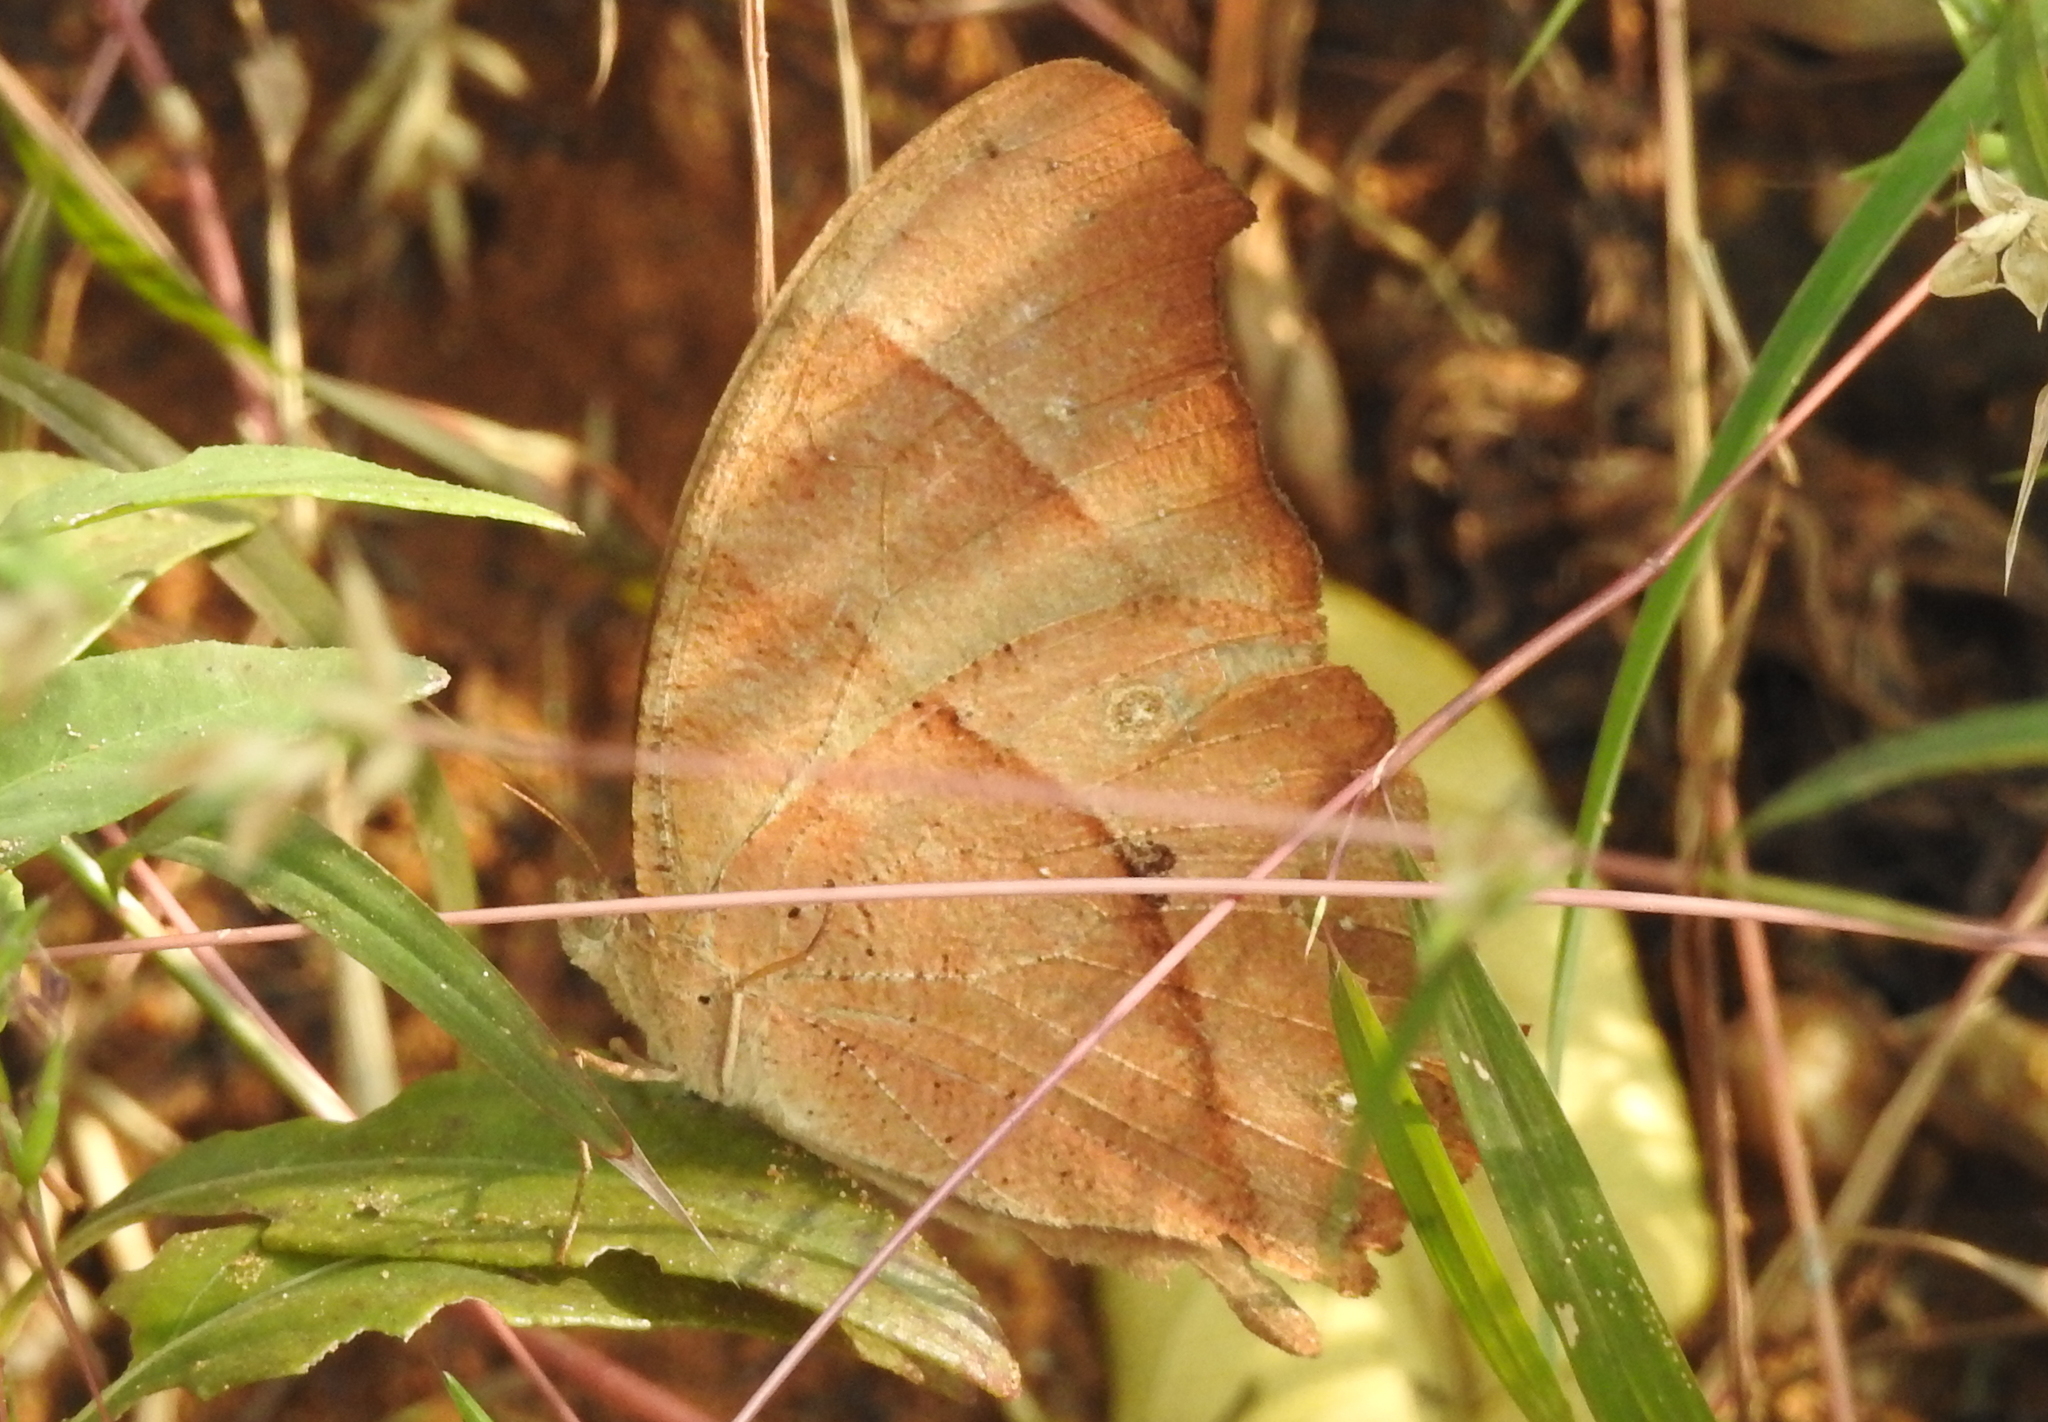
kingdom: Animalia
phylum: Arthropoda
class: Insecta
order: Lepidoptera
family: Nymphalidae
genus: Melanitis
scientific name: Melanitis leda
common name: Twilight brown
